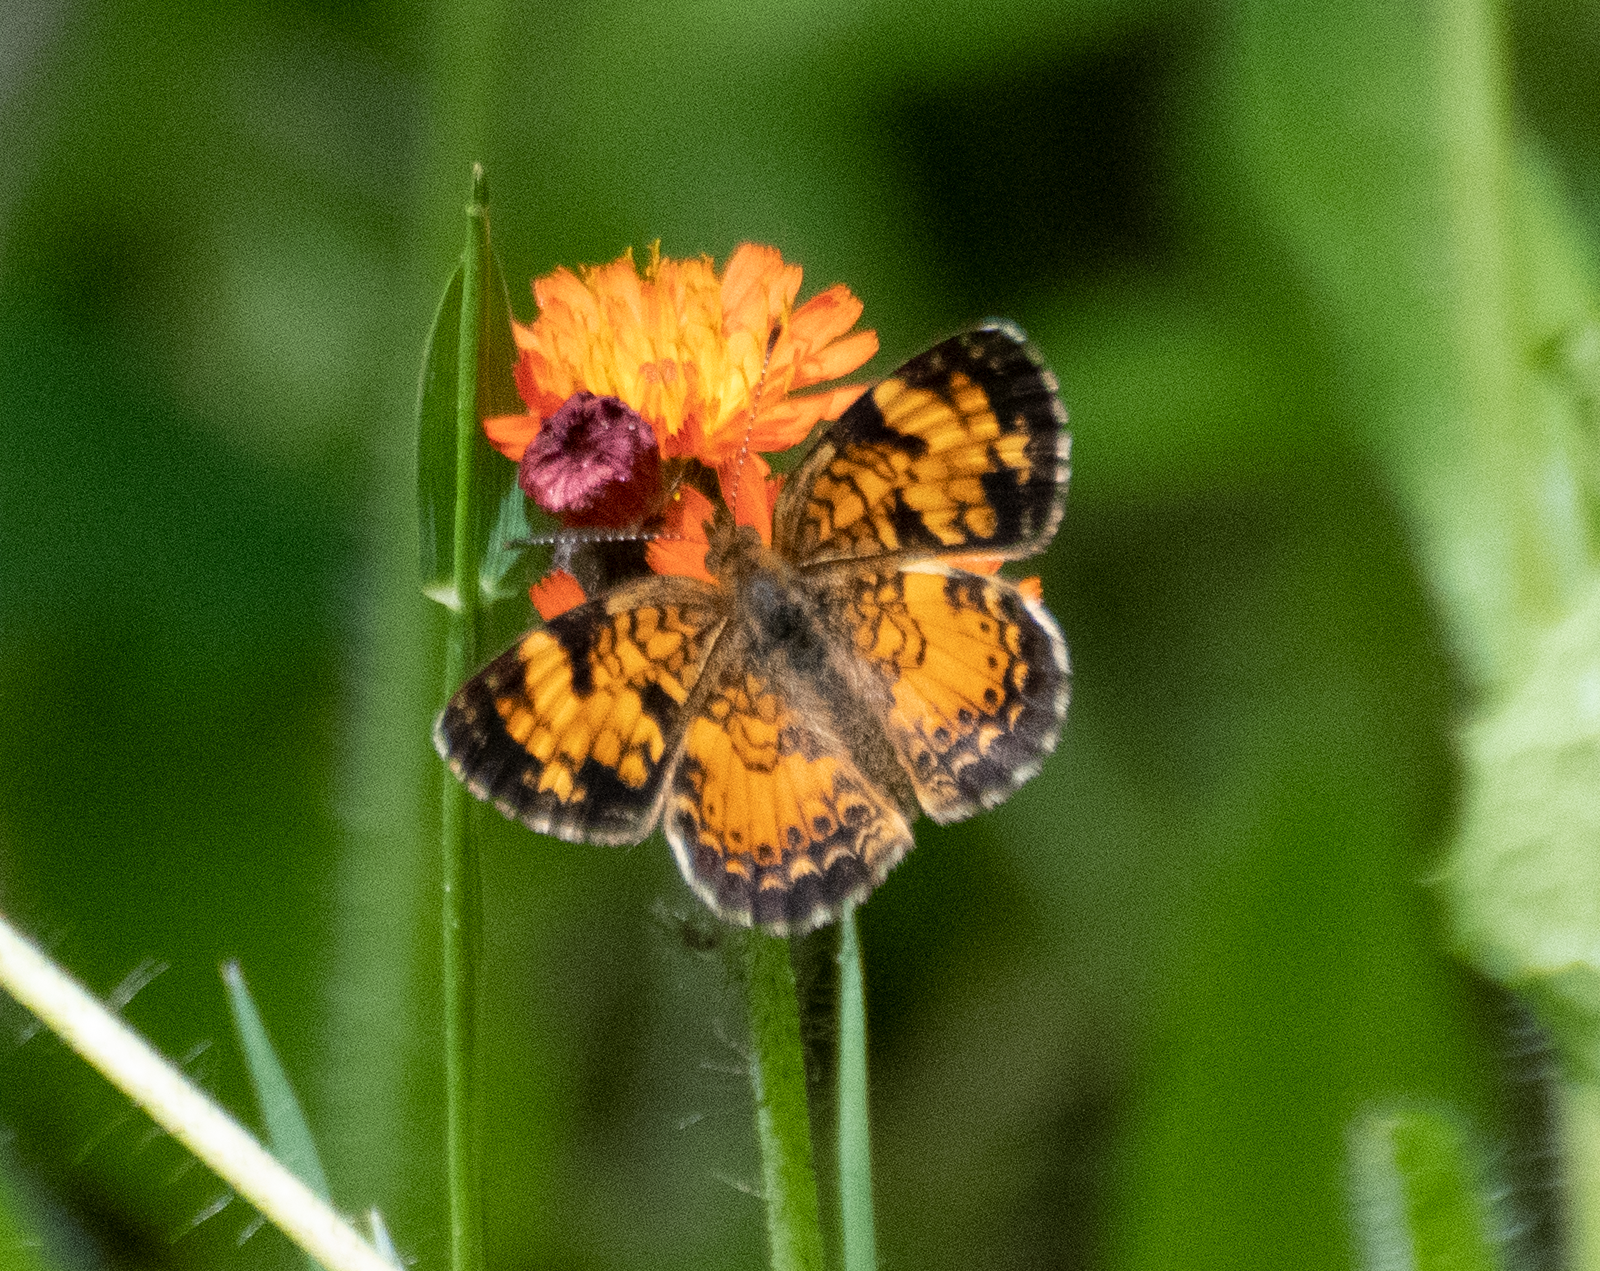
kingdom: Animalia
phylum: Arthropoda
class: Insecta
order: Lepidoptera
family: Nymphalidae
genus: Phyciodes
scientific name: Phyciodes tharos
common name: Pearl crescent
